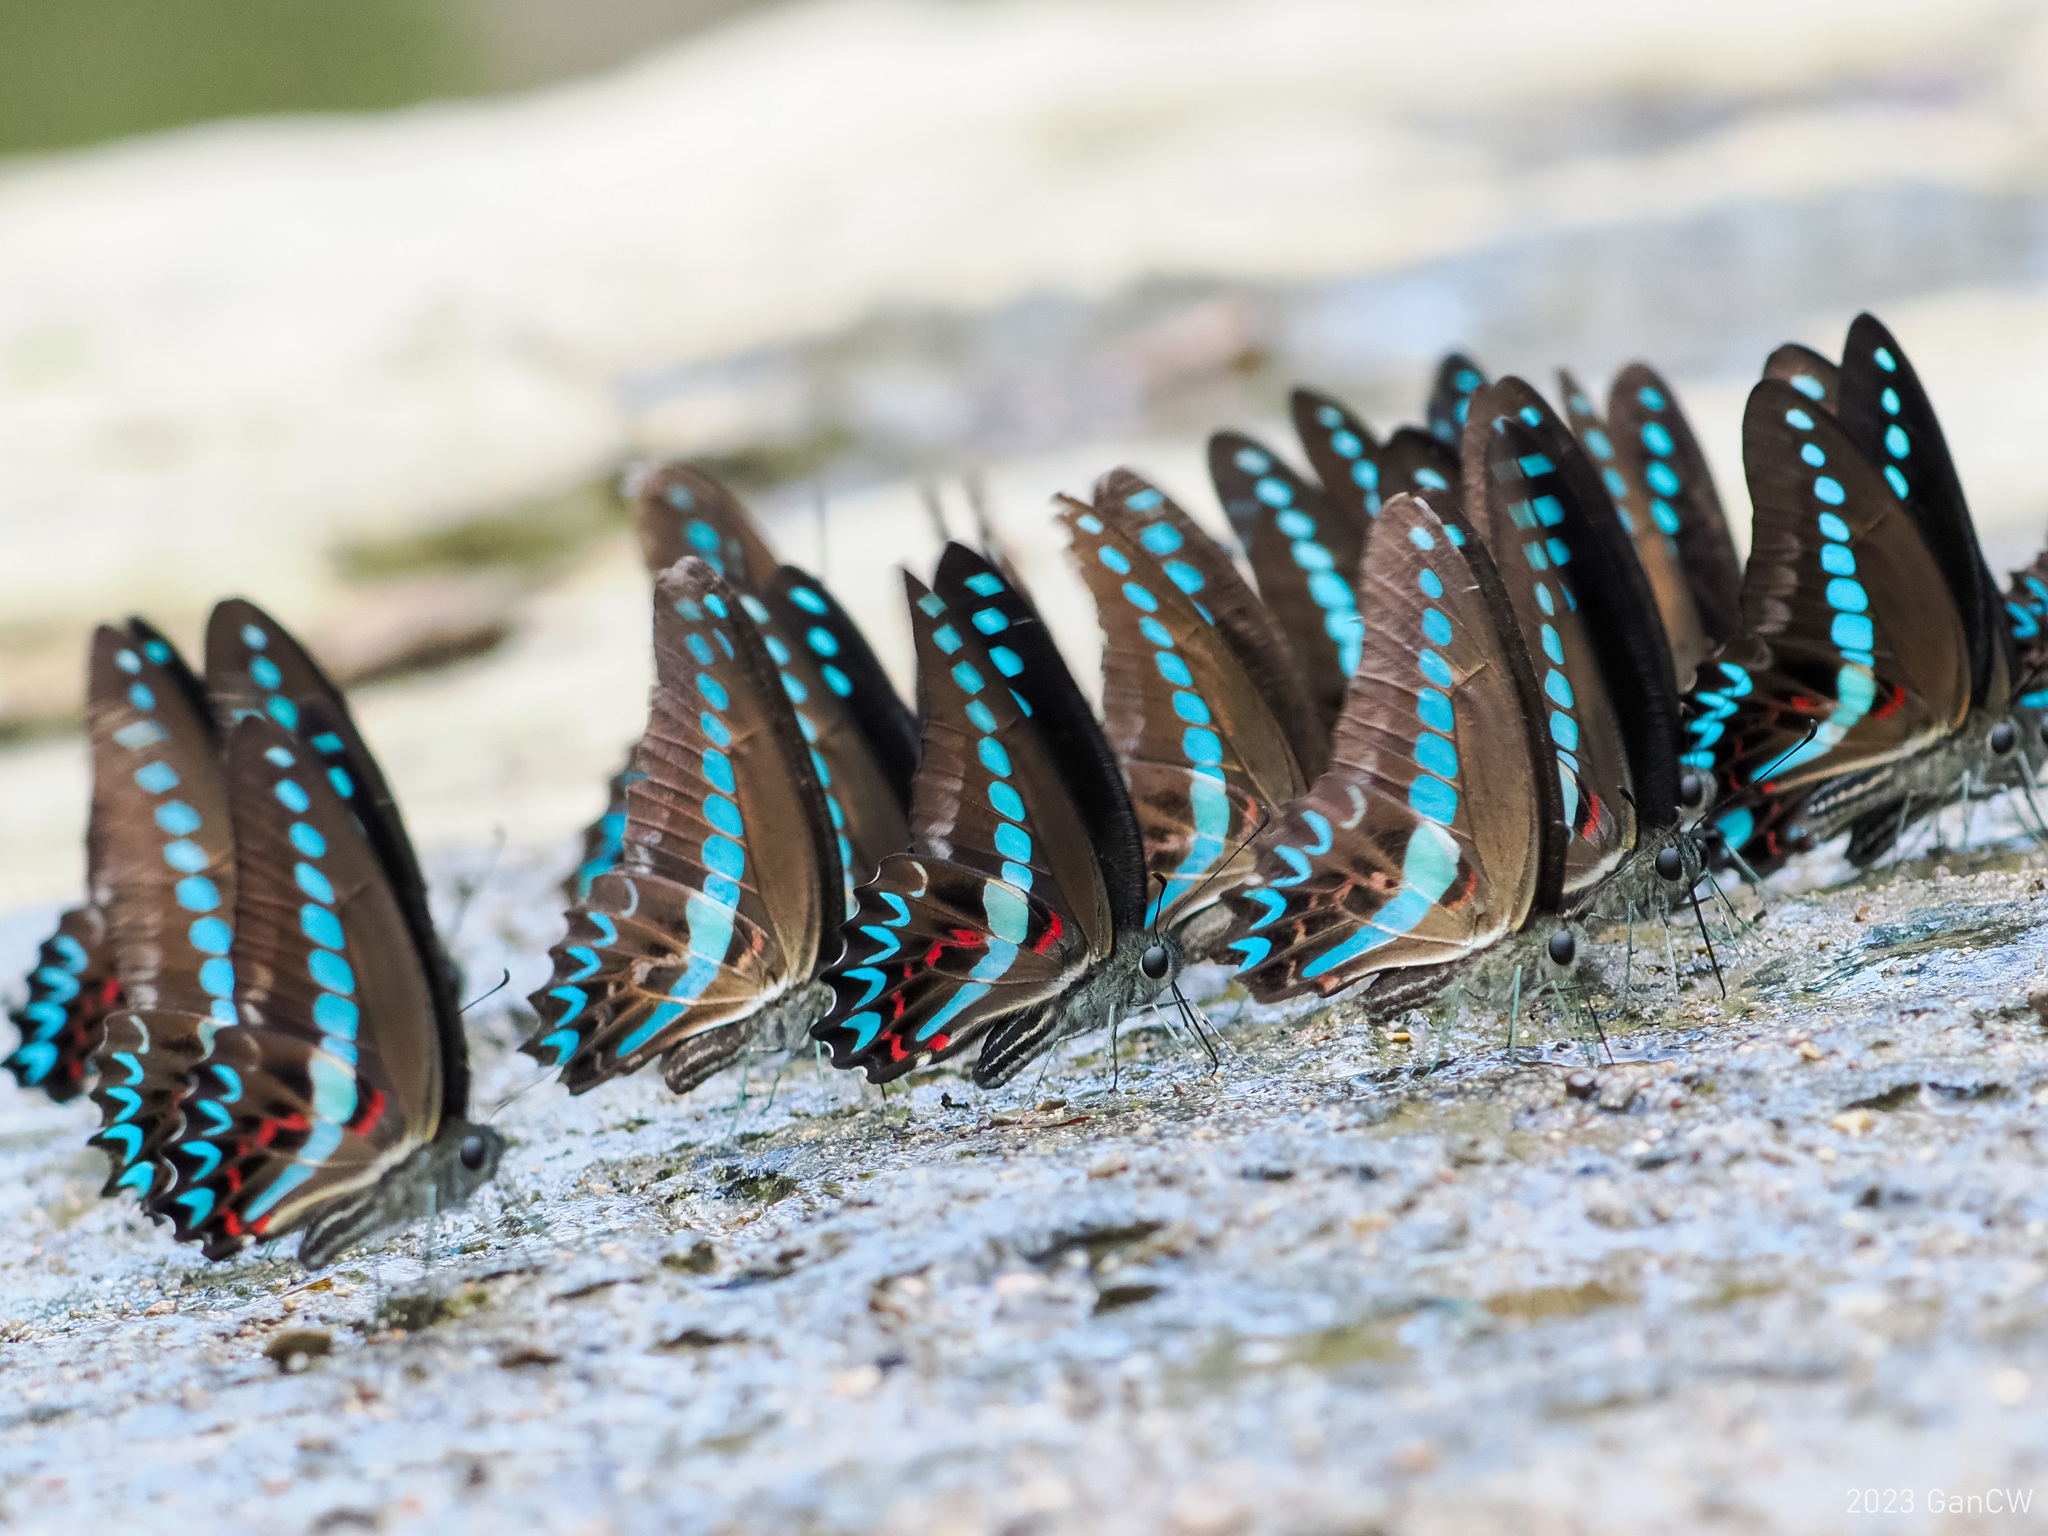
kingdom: Animalia
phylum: Arthropoda
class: Insecta
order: Lepidoptera
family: Papilionidae
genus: Graphium
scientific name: Graphium milon
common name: Milon's swallowtail
